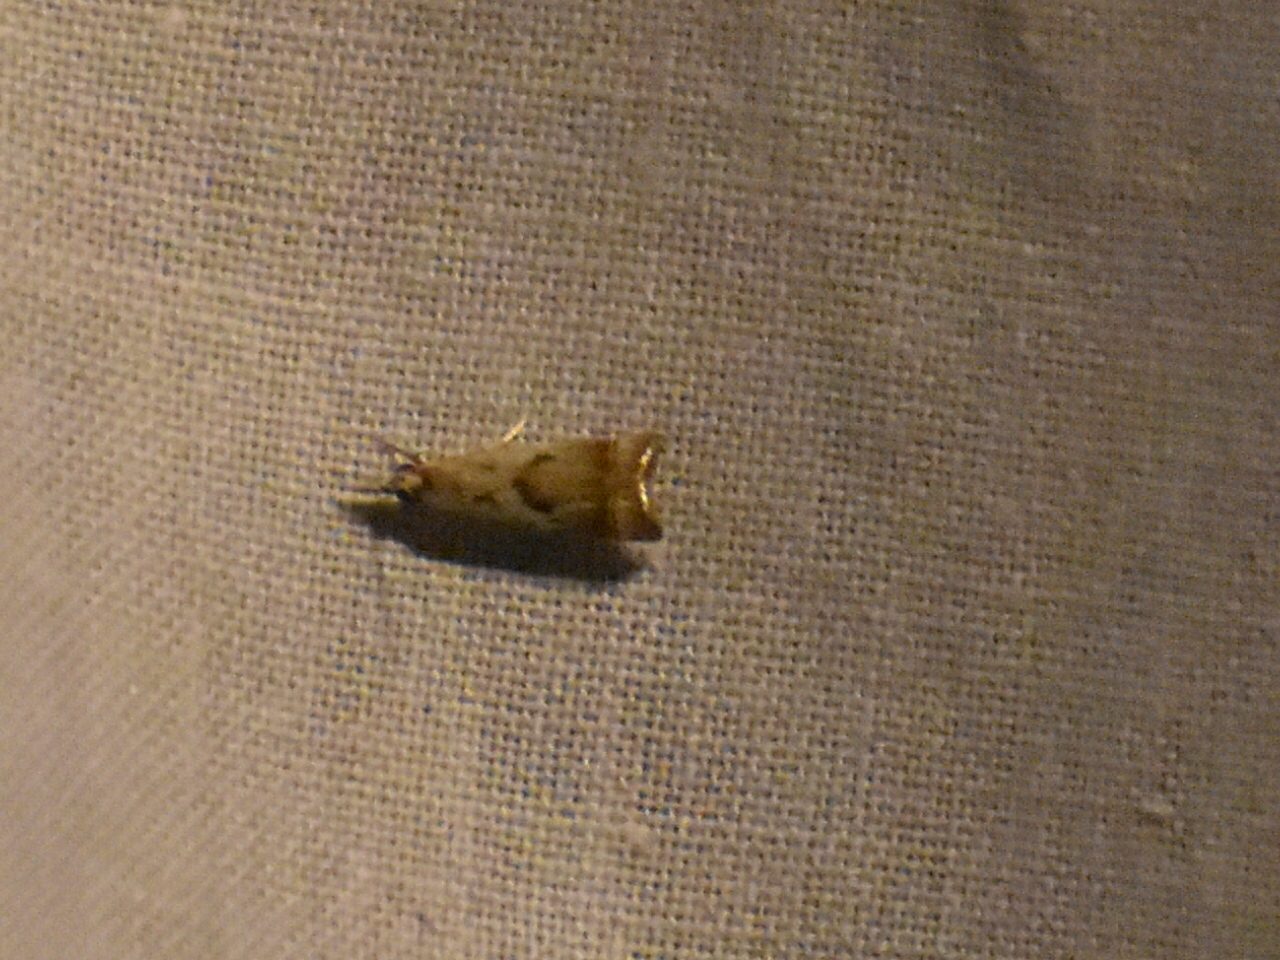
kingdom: Animalia
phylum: Arthropoda
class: Insecta
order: Lepidoptera
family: Crambidae
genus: Microcrambus
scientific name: Microcrambus elegans
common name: Elegant grass-veneer
